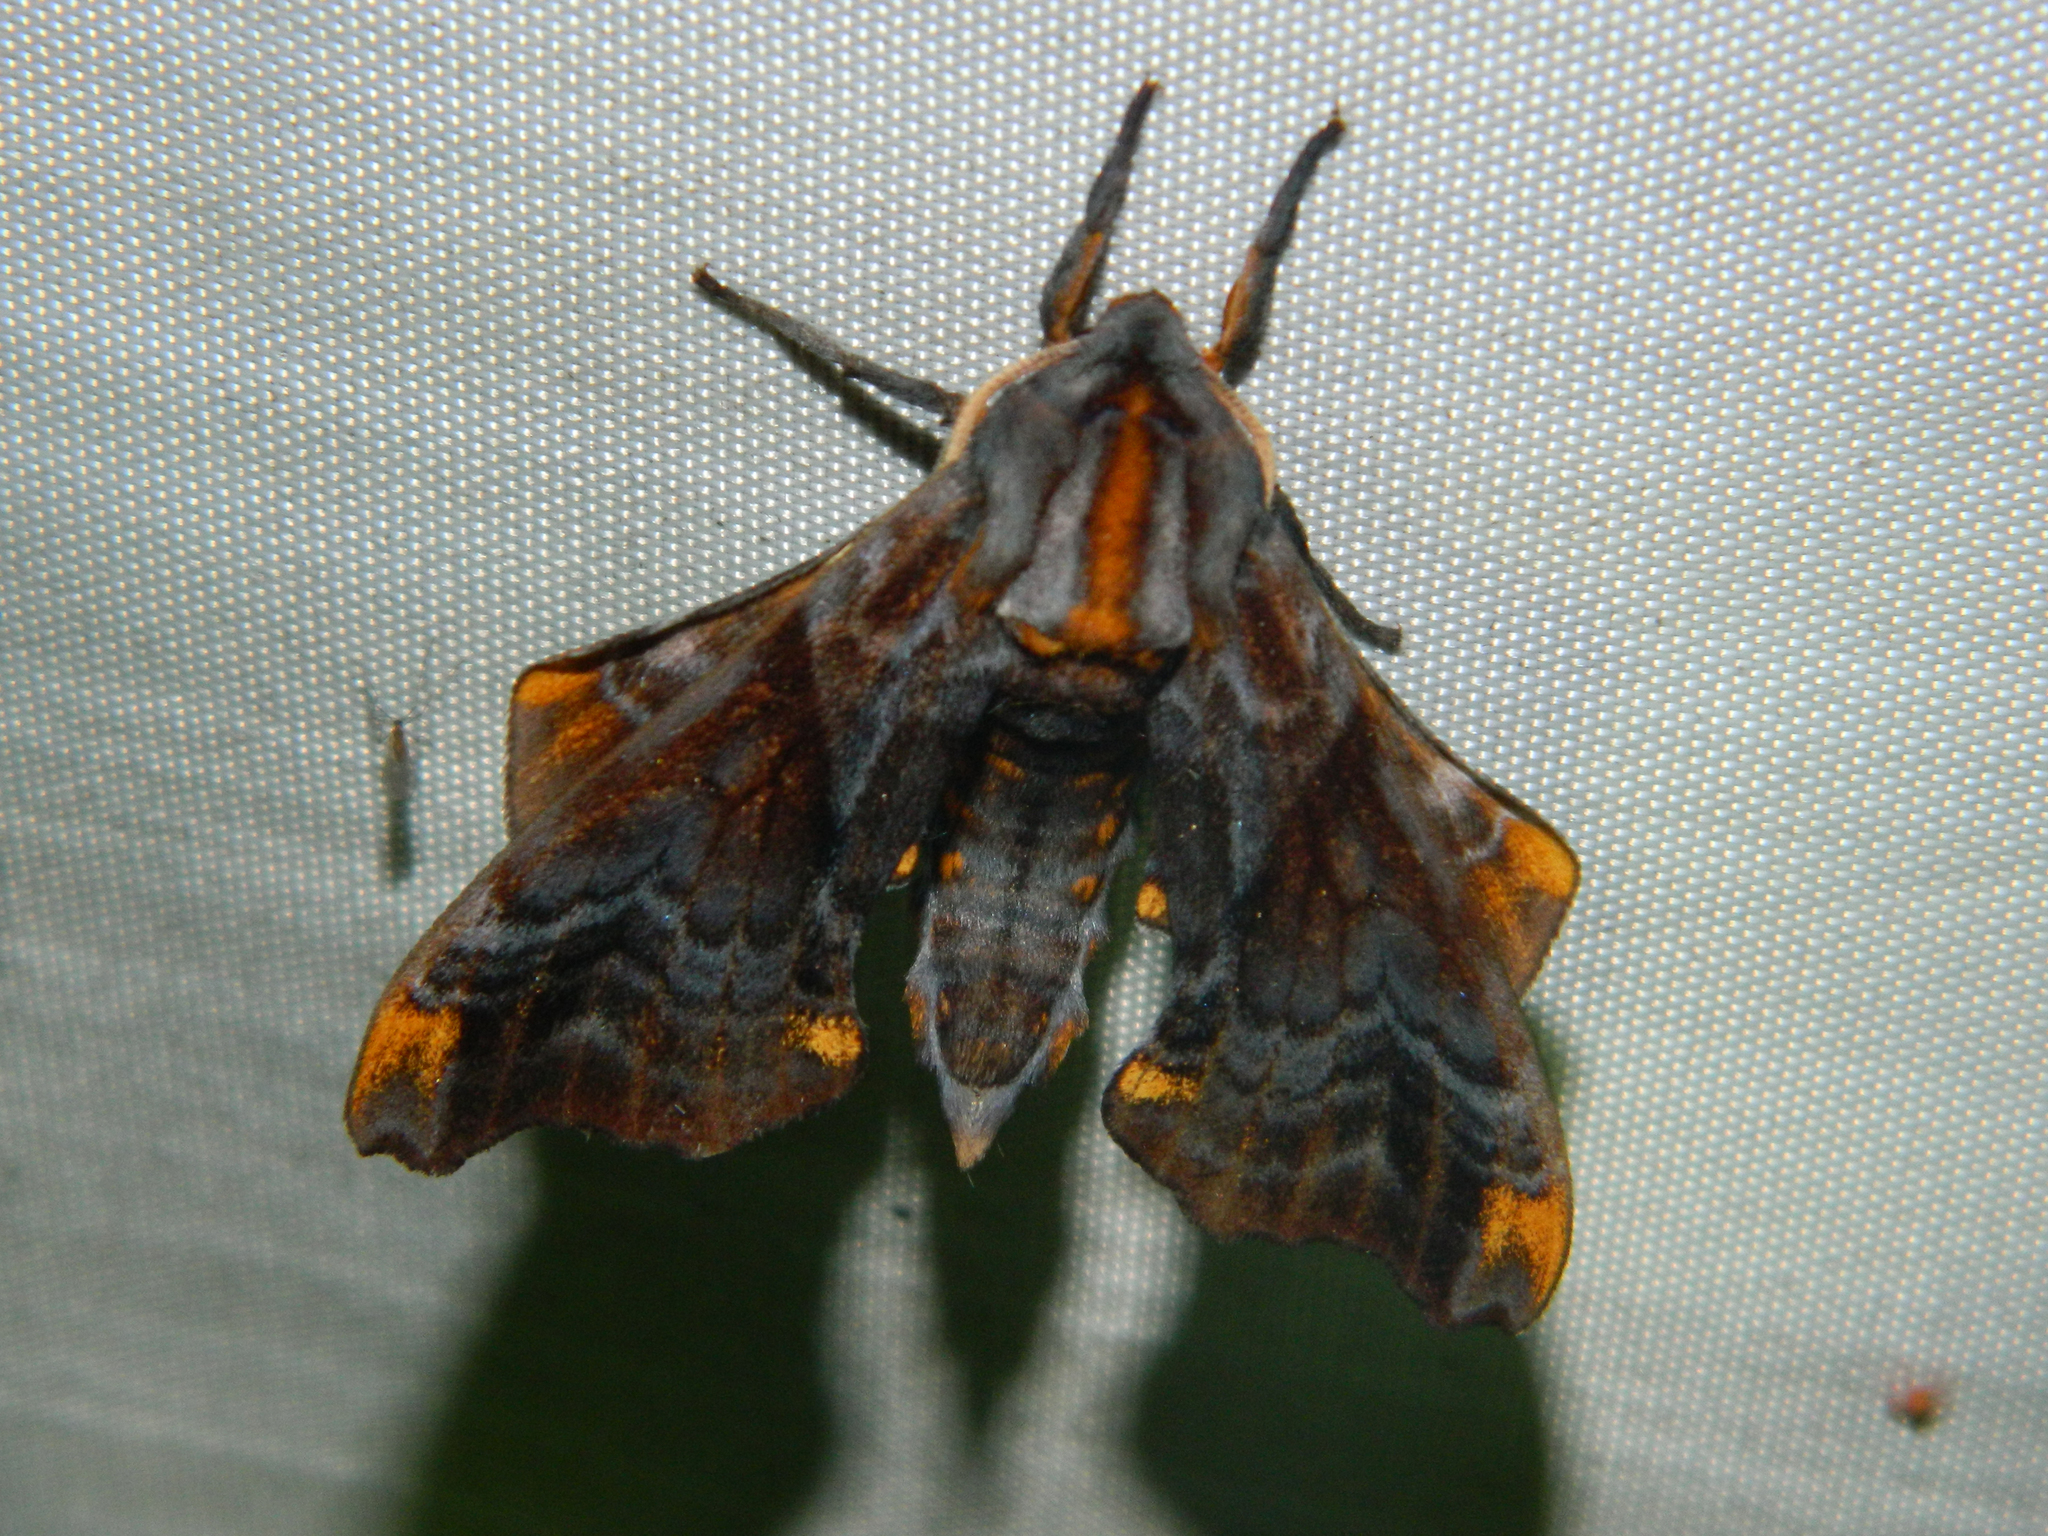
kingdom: Animalia
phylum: Arthropoda
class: Insecta
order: Lepidoptera
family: Sphingidae
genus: Paonias
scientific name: Paonias myops
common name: Small-eyed sphinx
